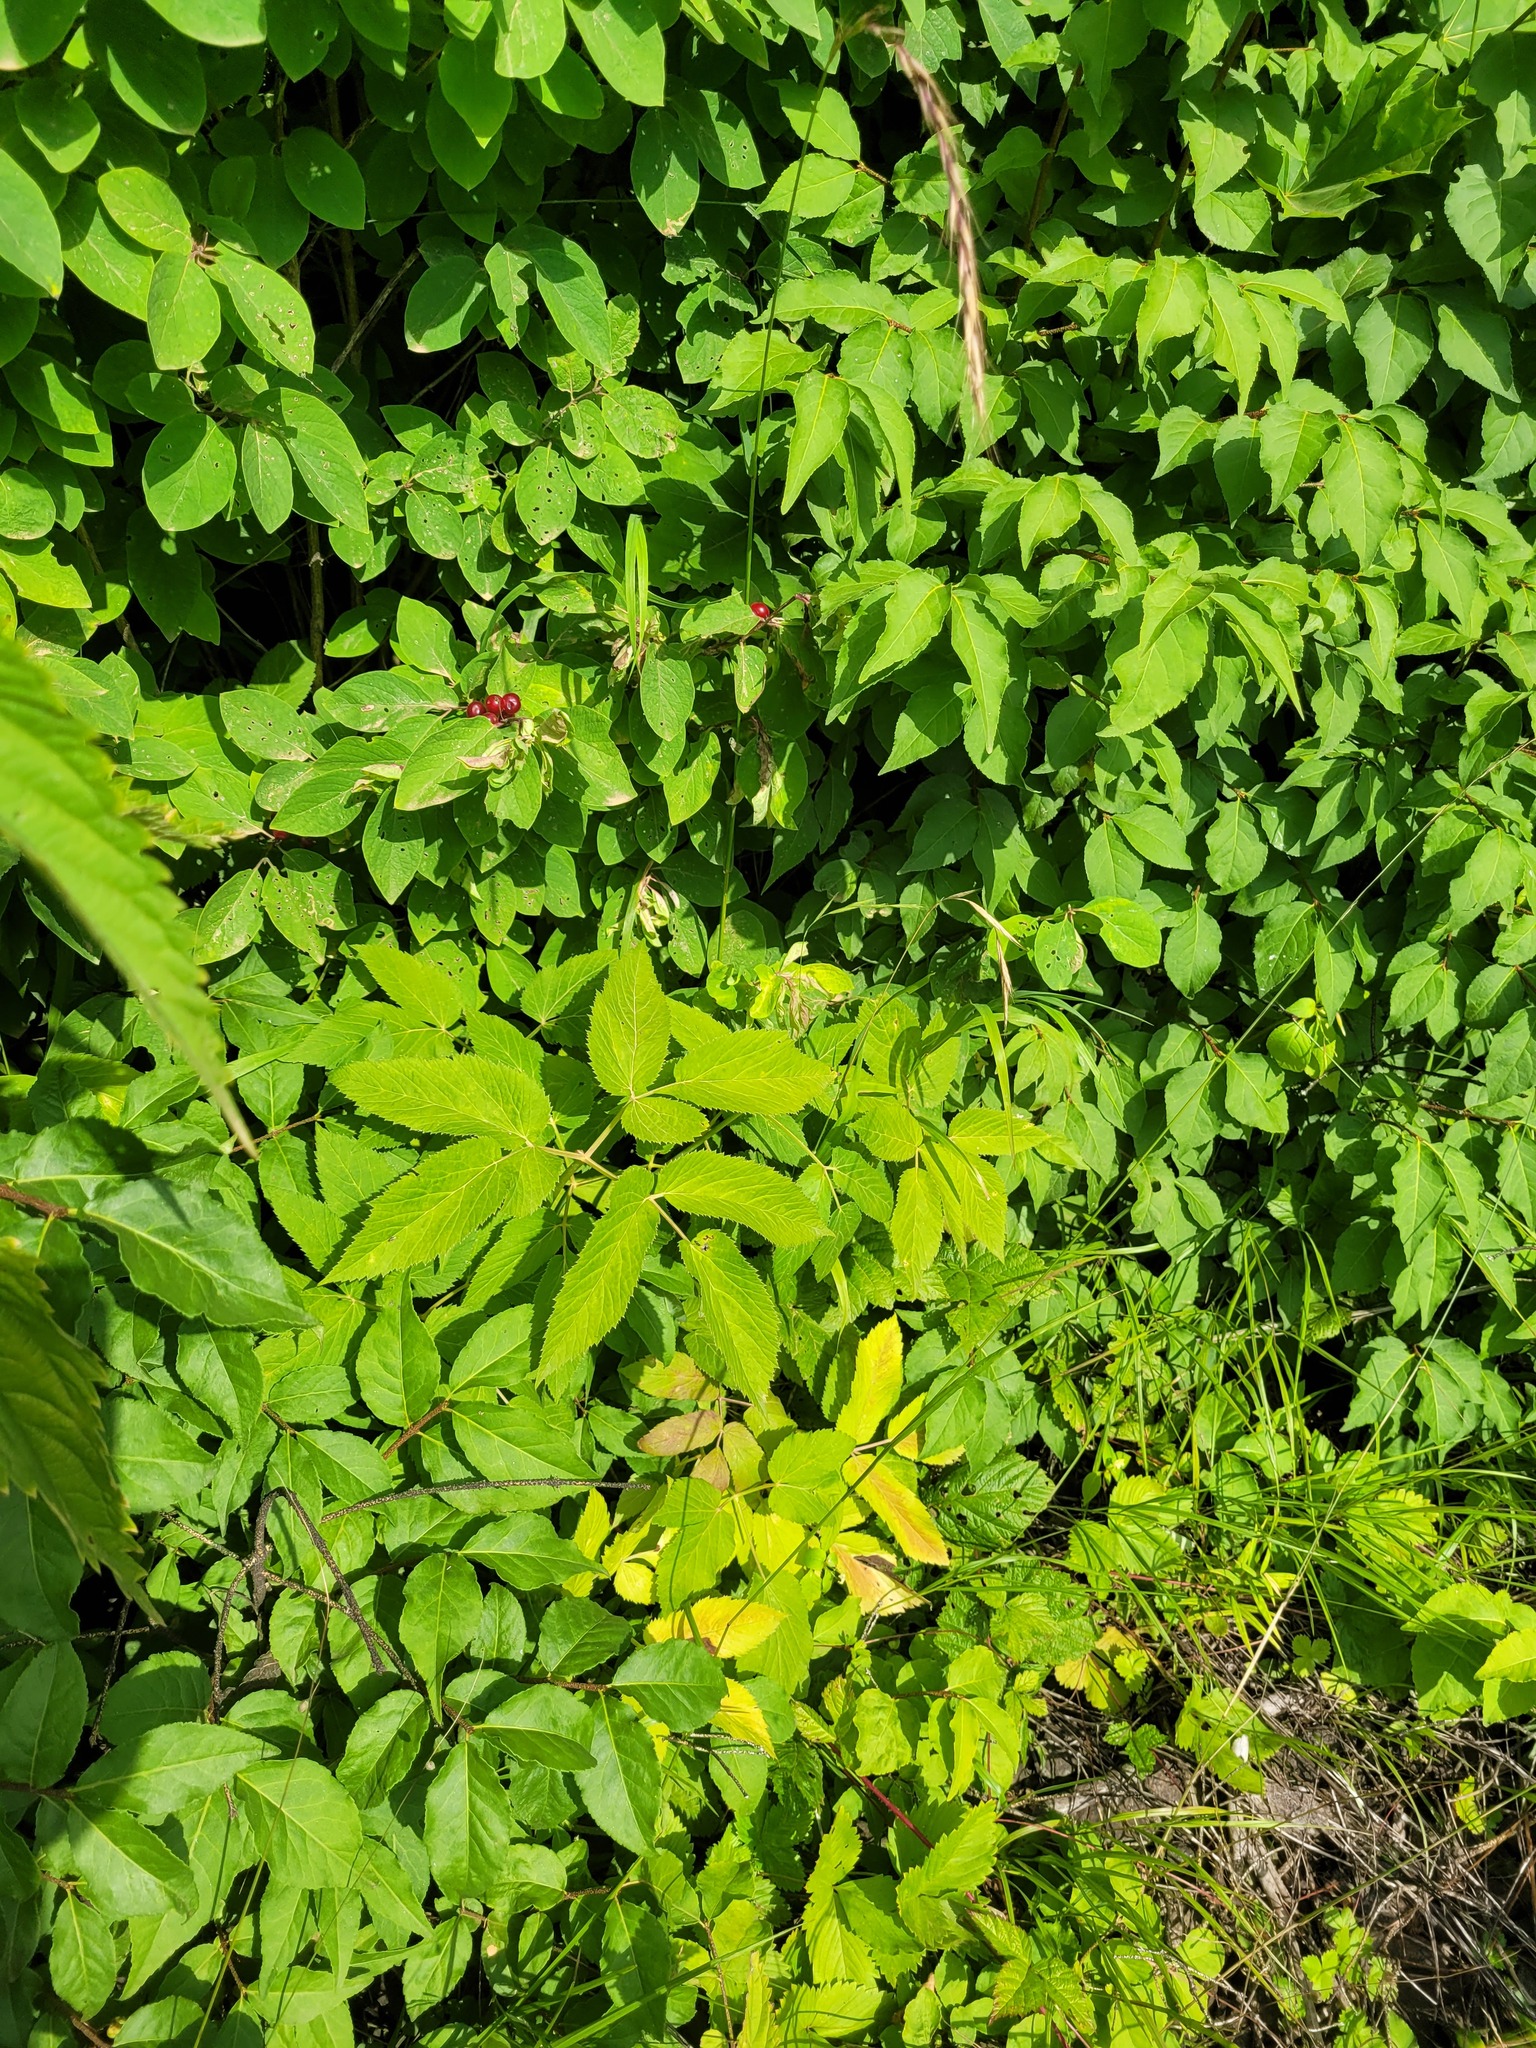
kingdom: Plantae
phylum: Tracheophyta
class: Magnoliopsida
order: Apiales
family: Apiaceae
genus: Aegopodium
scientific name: Aegopodium podagraria
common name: Ground-elder
